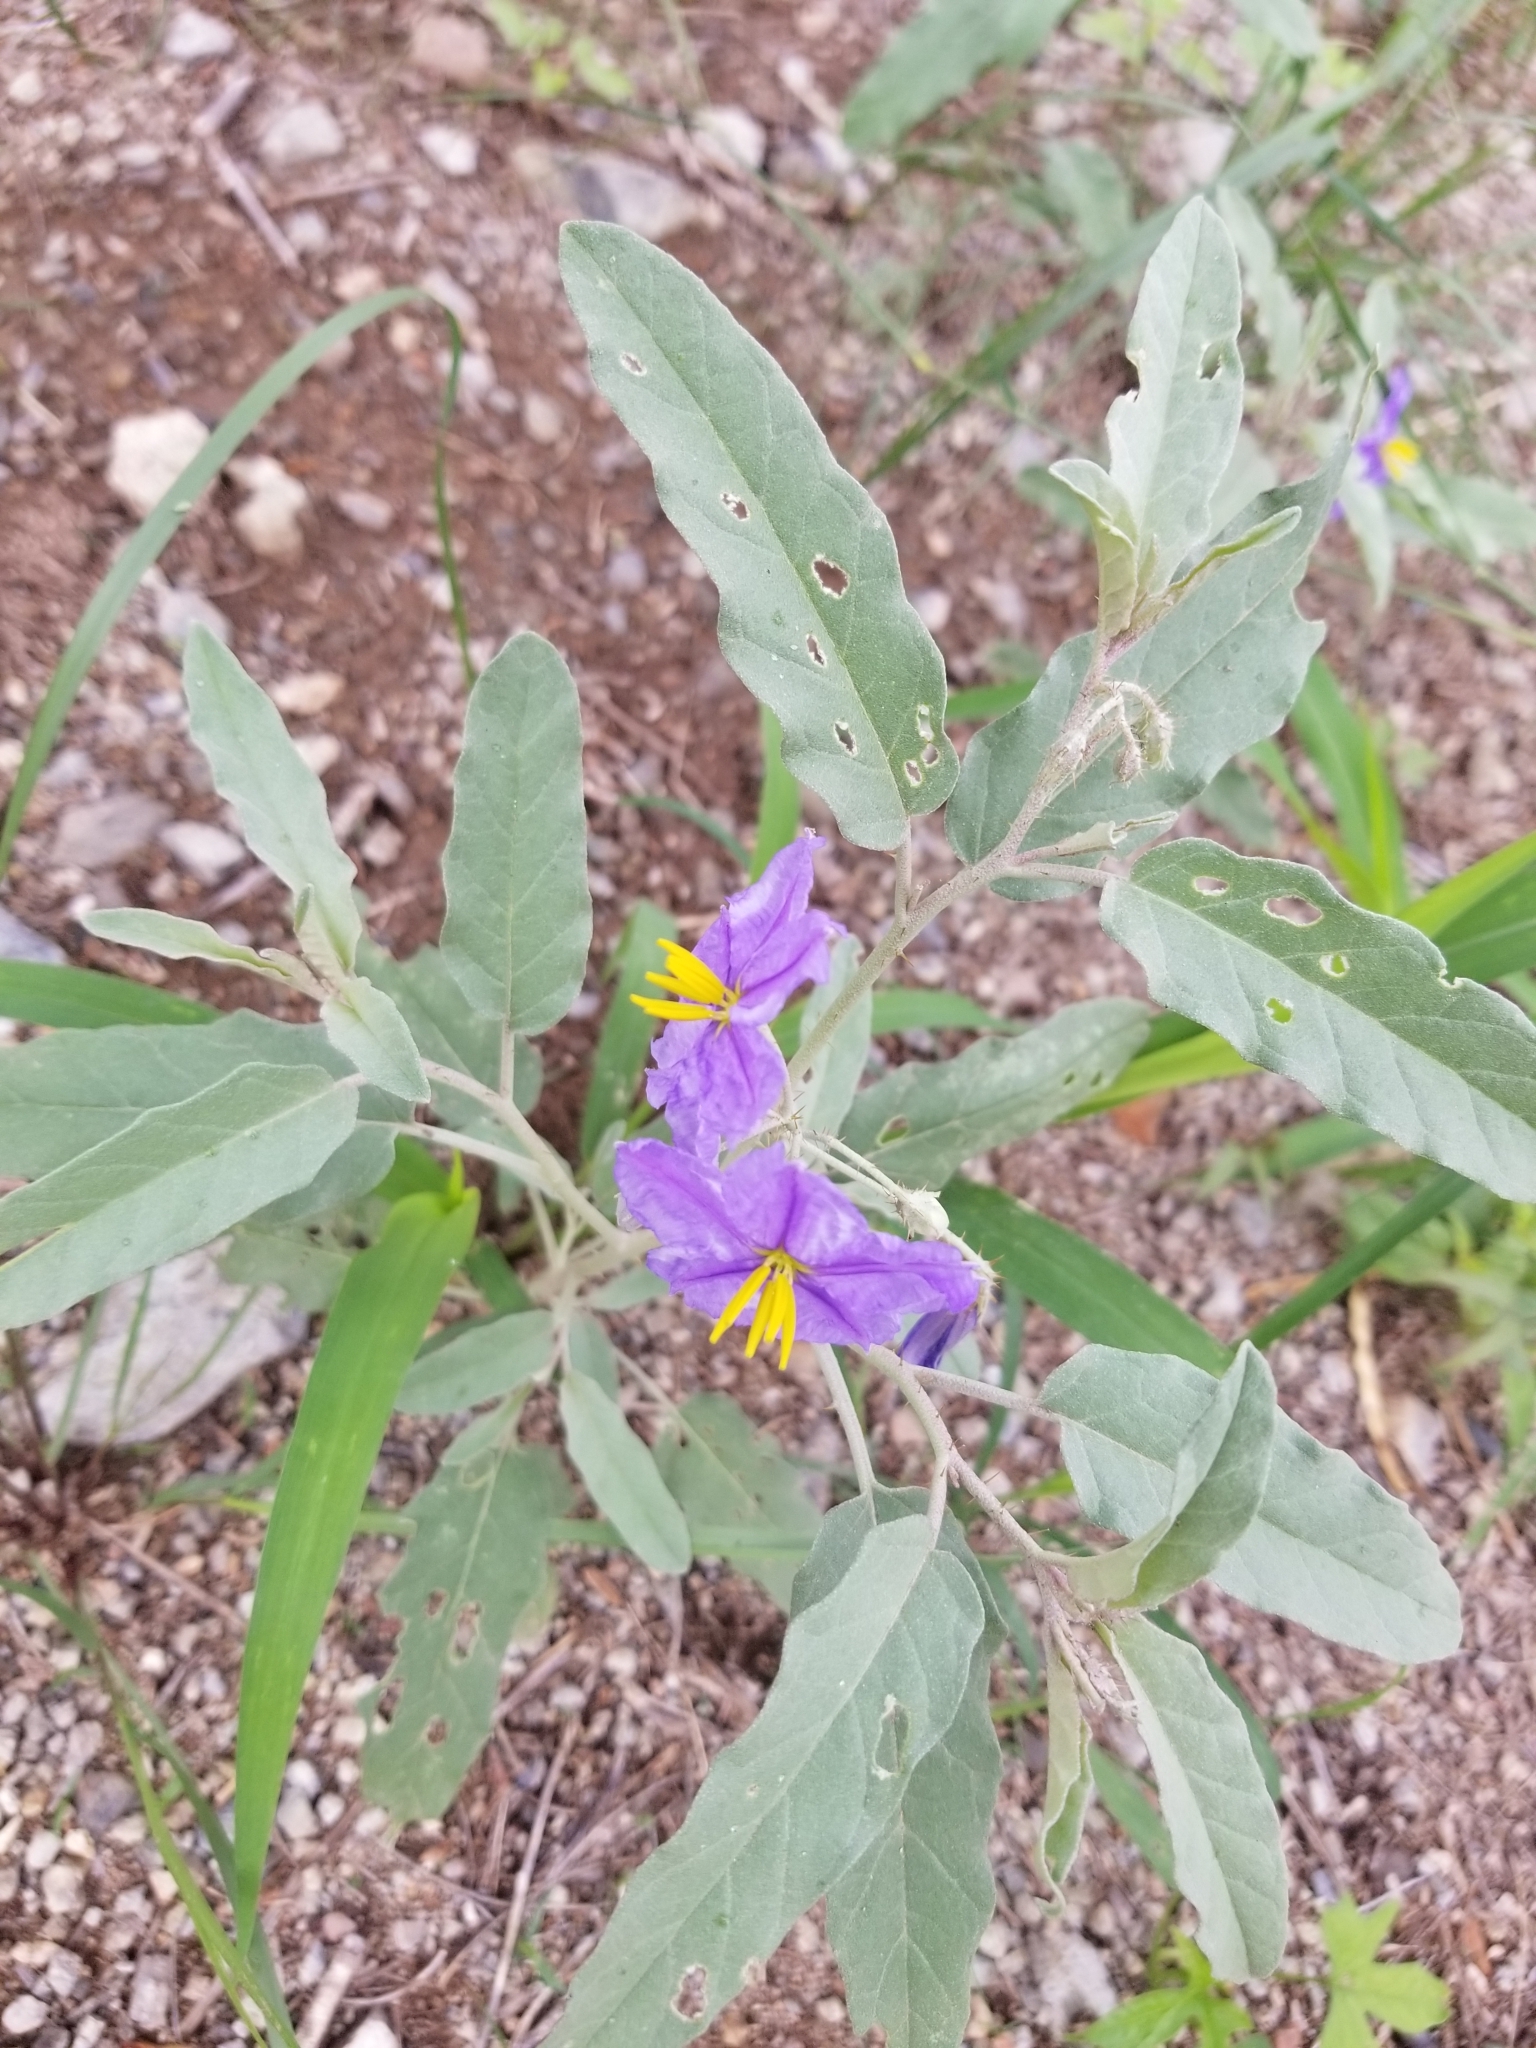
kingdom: Plantae
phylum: Tracheophyta
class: Magnoliopsida
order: Solanales
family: Solanaceae
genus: Solanum
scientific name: Solanum elaeagnifolium
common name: Silverleaf nightshade
